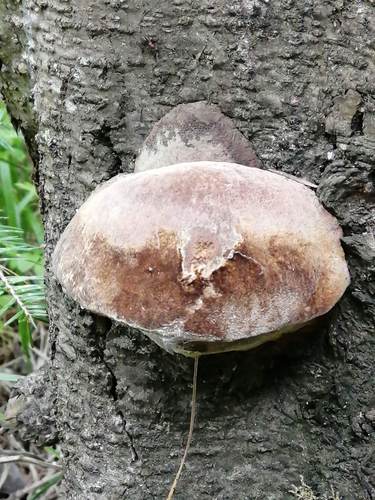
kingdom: Fungi
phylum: Basidiomycota
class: Agaricomycetes
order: Hymenochaetales
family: Hymenochaetaceae
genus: Phellinus
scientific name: Phellinus hartigii
